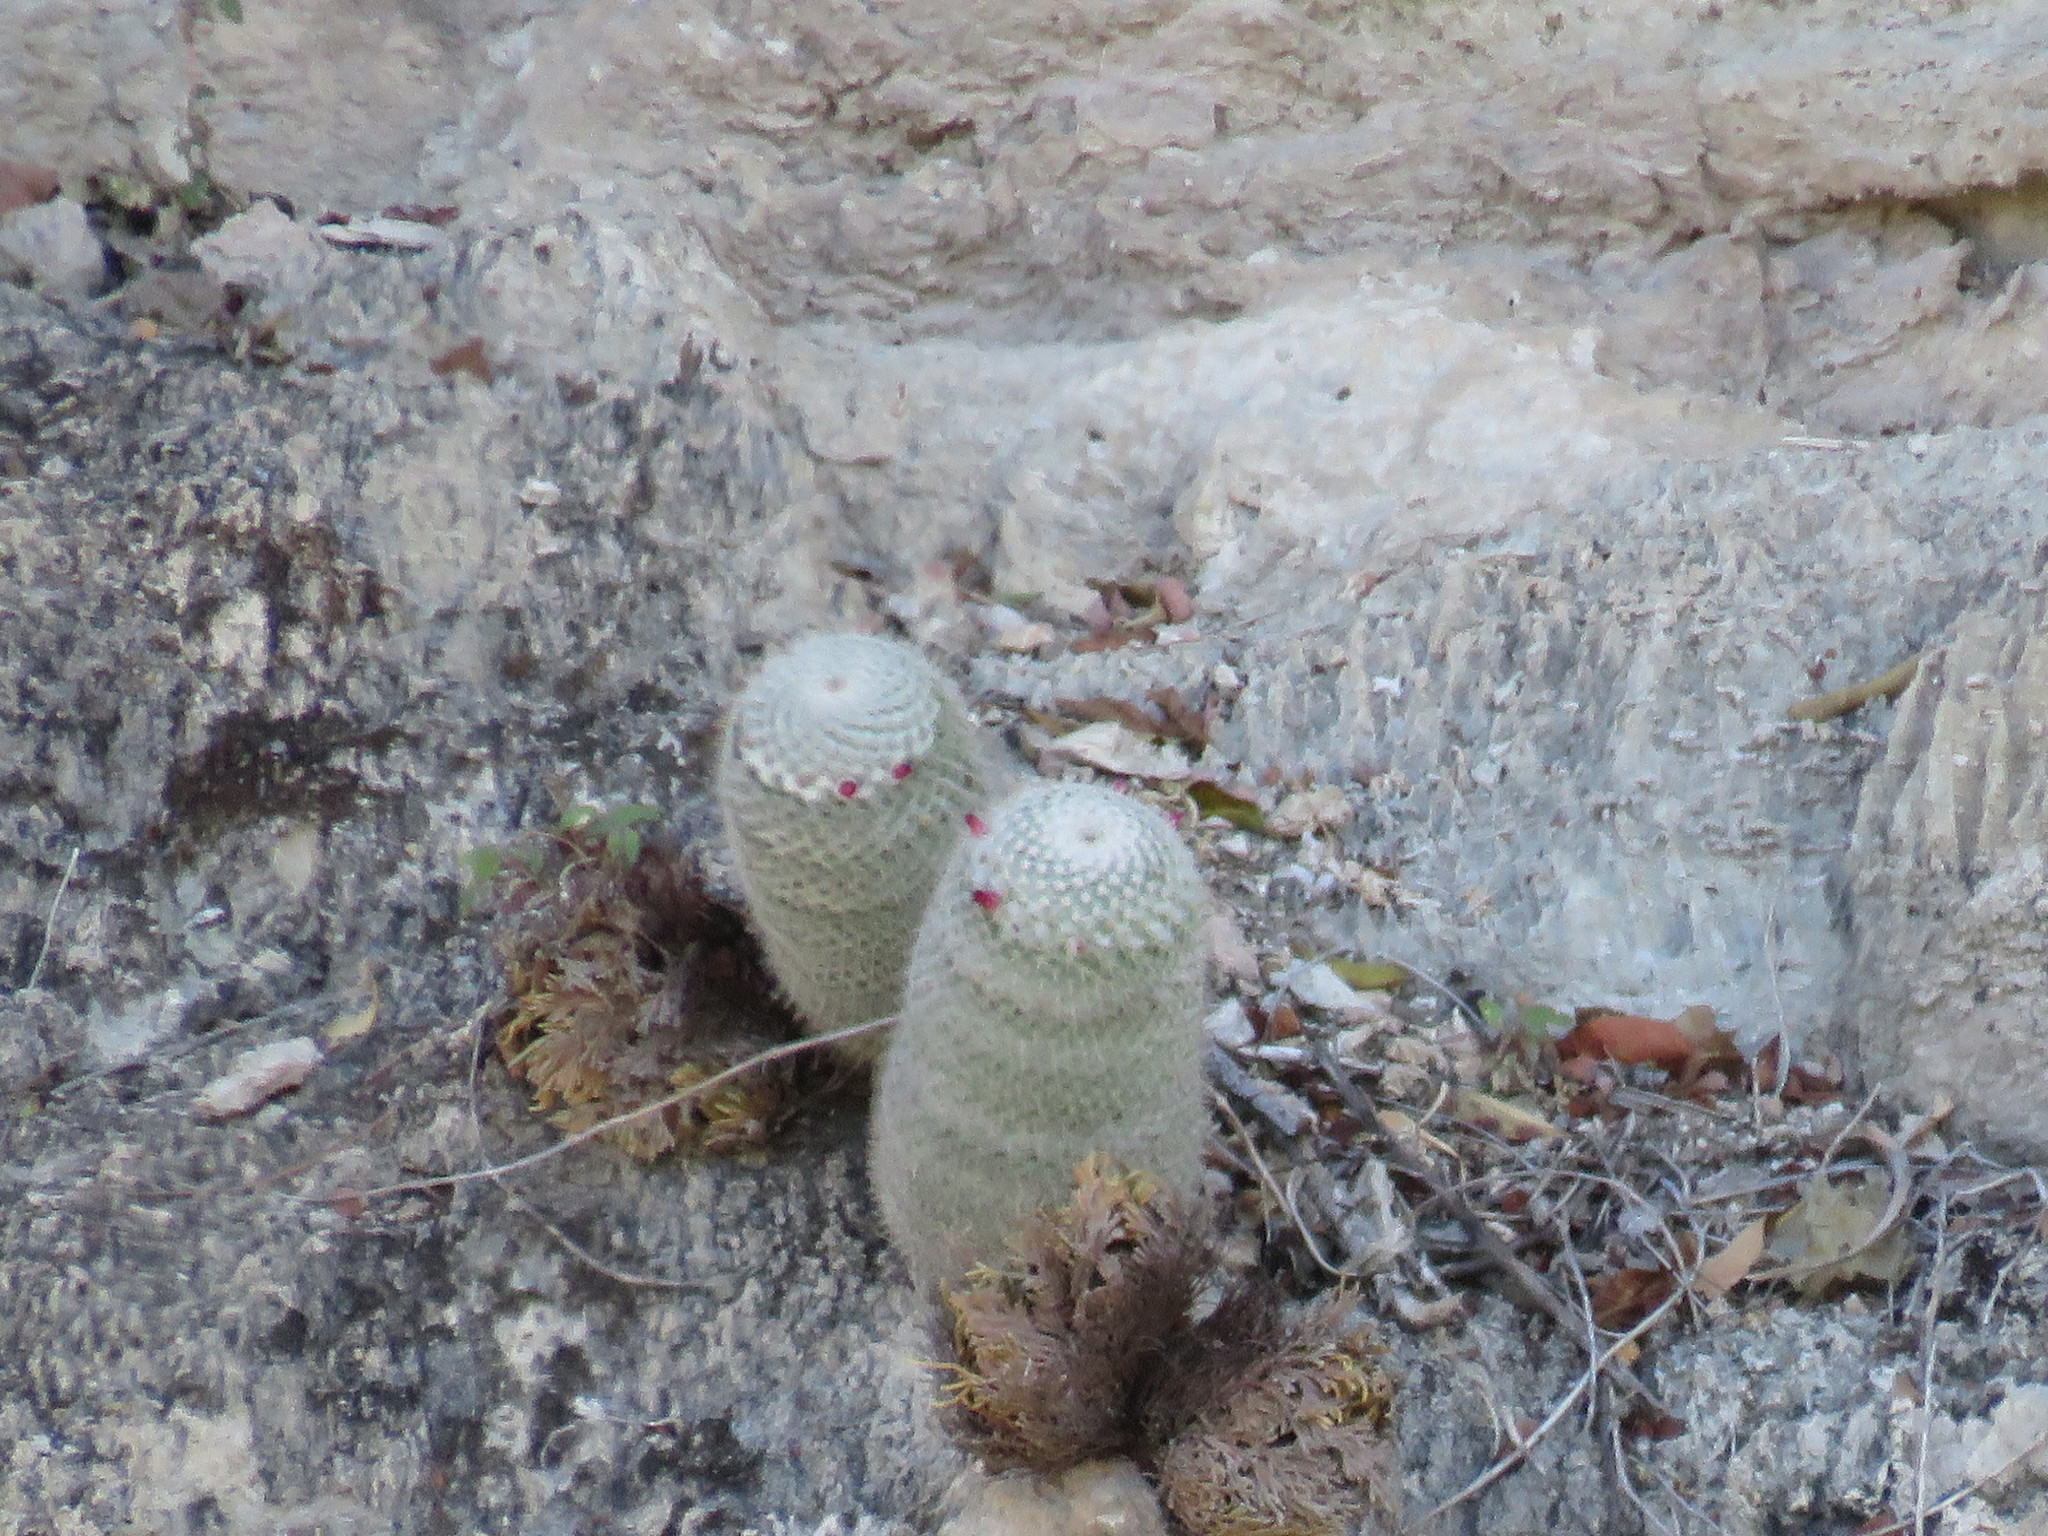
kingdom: Plantae
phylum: Tracheophyta
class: Magnoliopsida
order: Caryophyllales
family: Cactaceae
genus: Mammillaria
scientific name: Mammillaria albilanata
